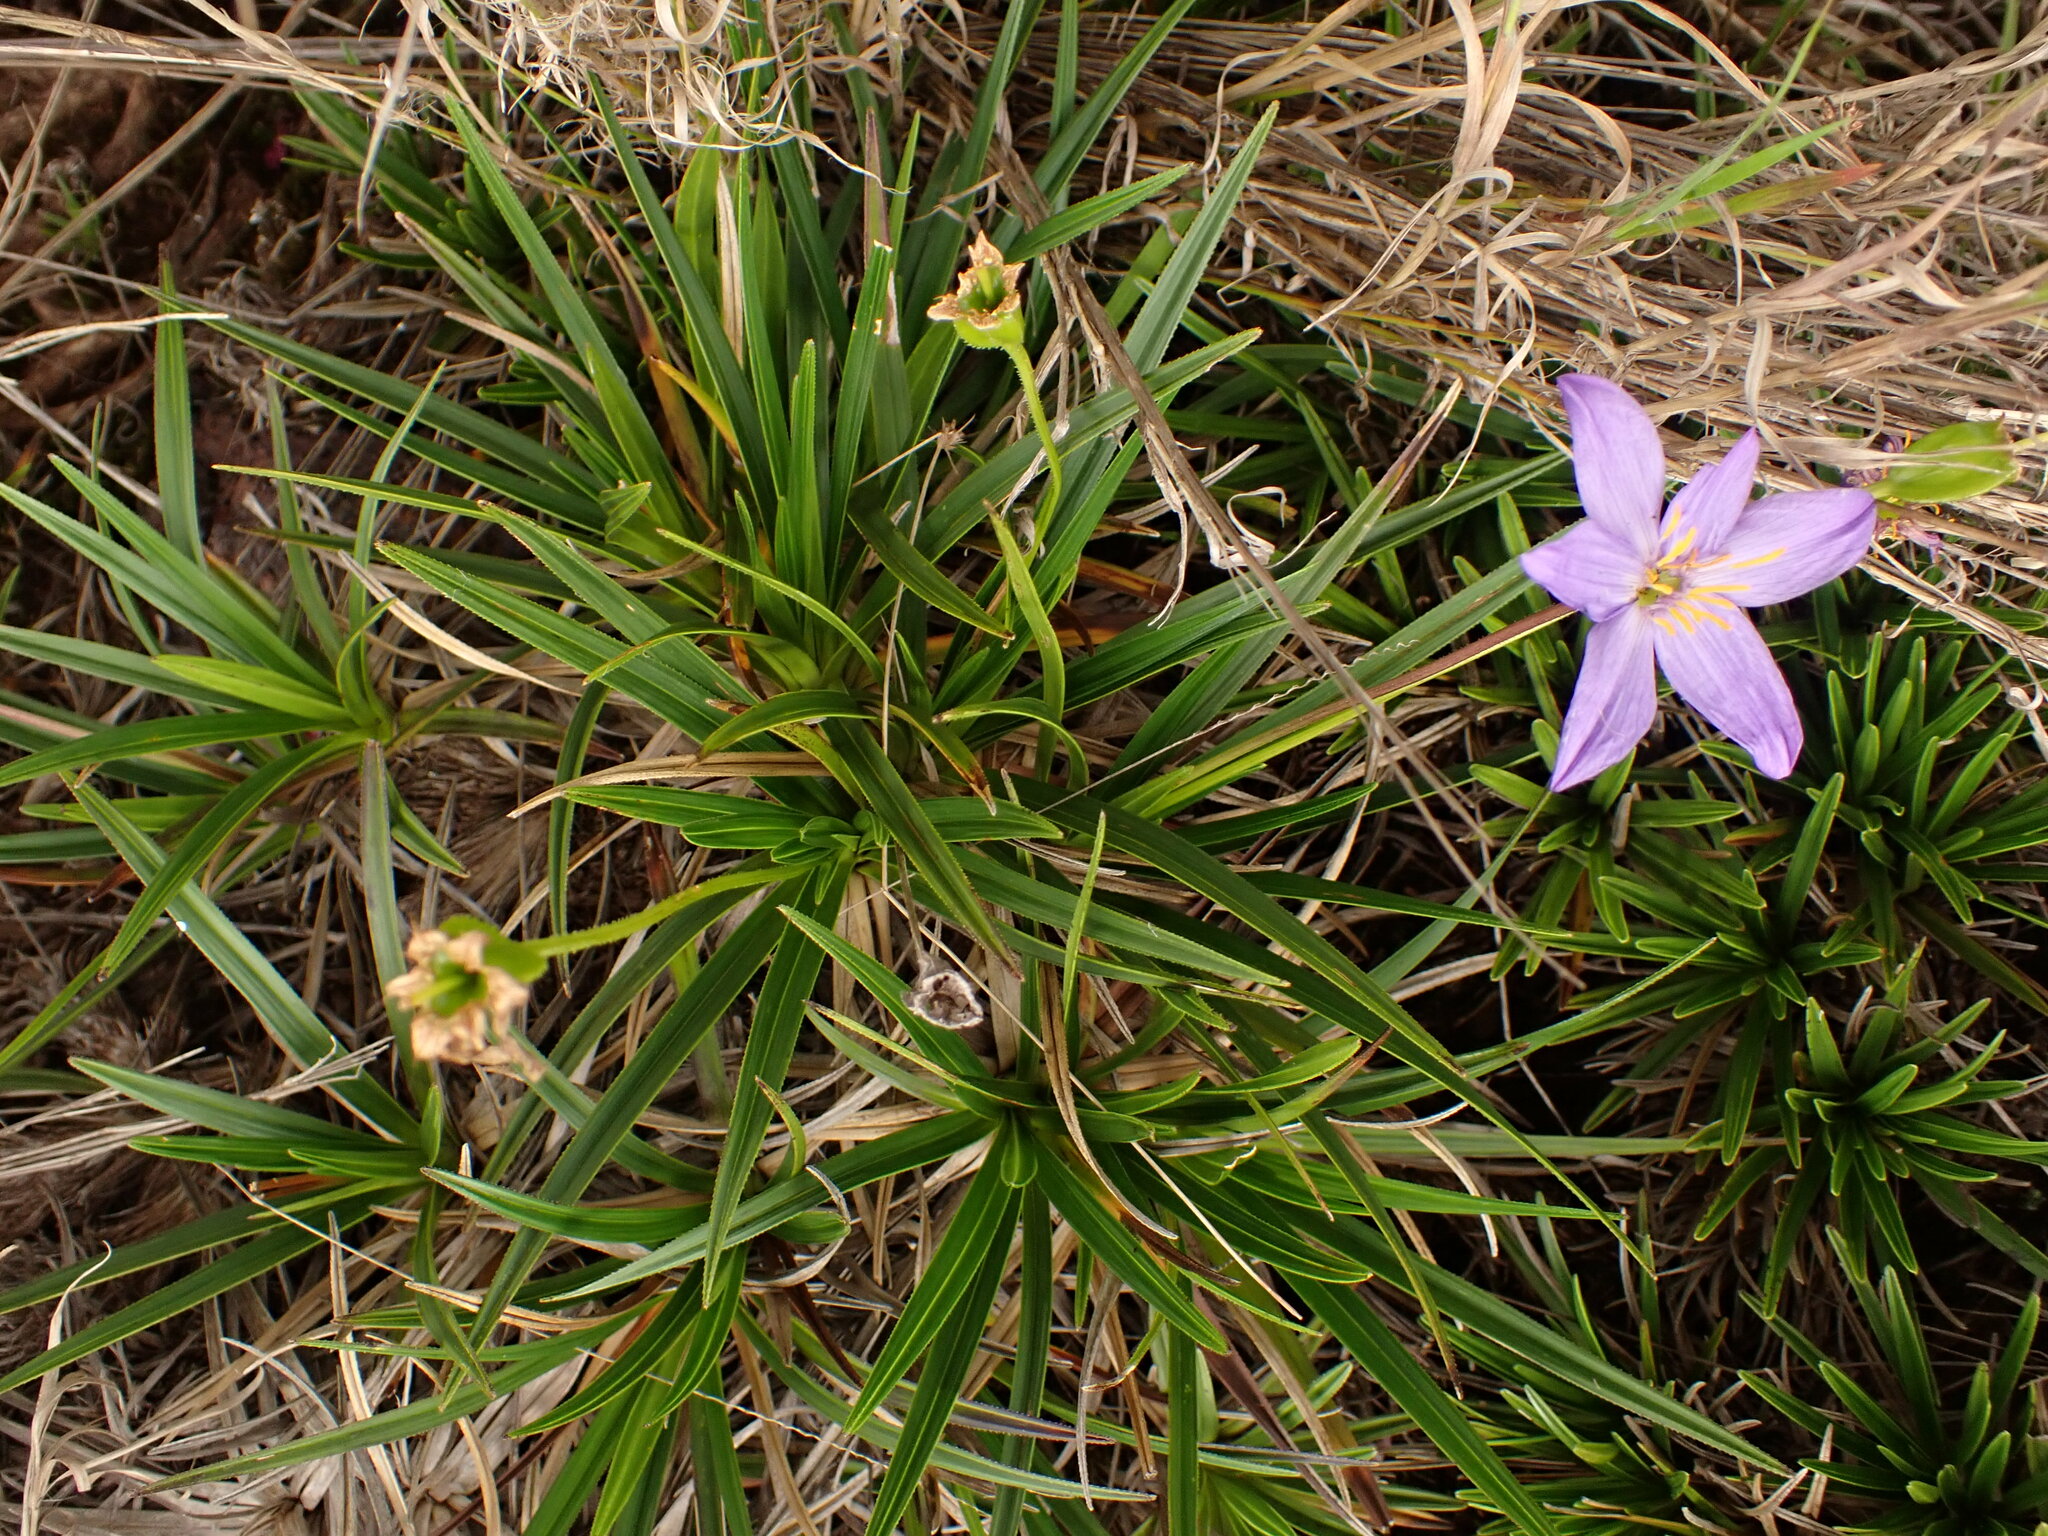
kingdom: Plantae
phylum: Tracheophyta
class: Liliopsida
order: Pandanales
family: Velloziaceae
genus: Vellozia
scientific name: Vellozia caruncularis
